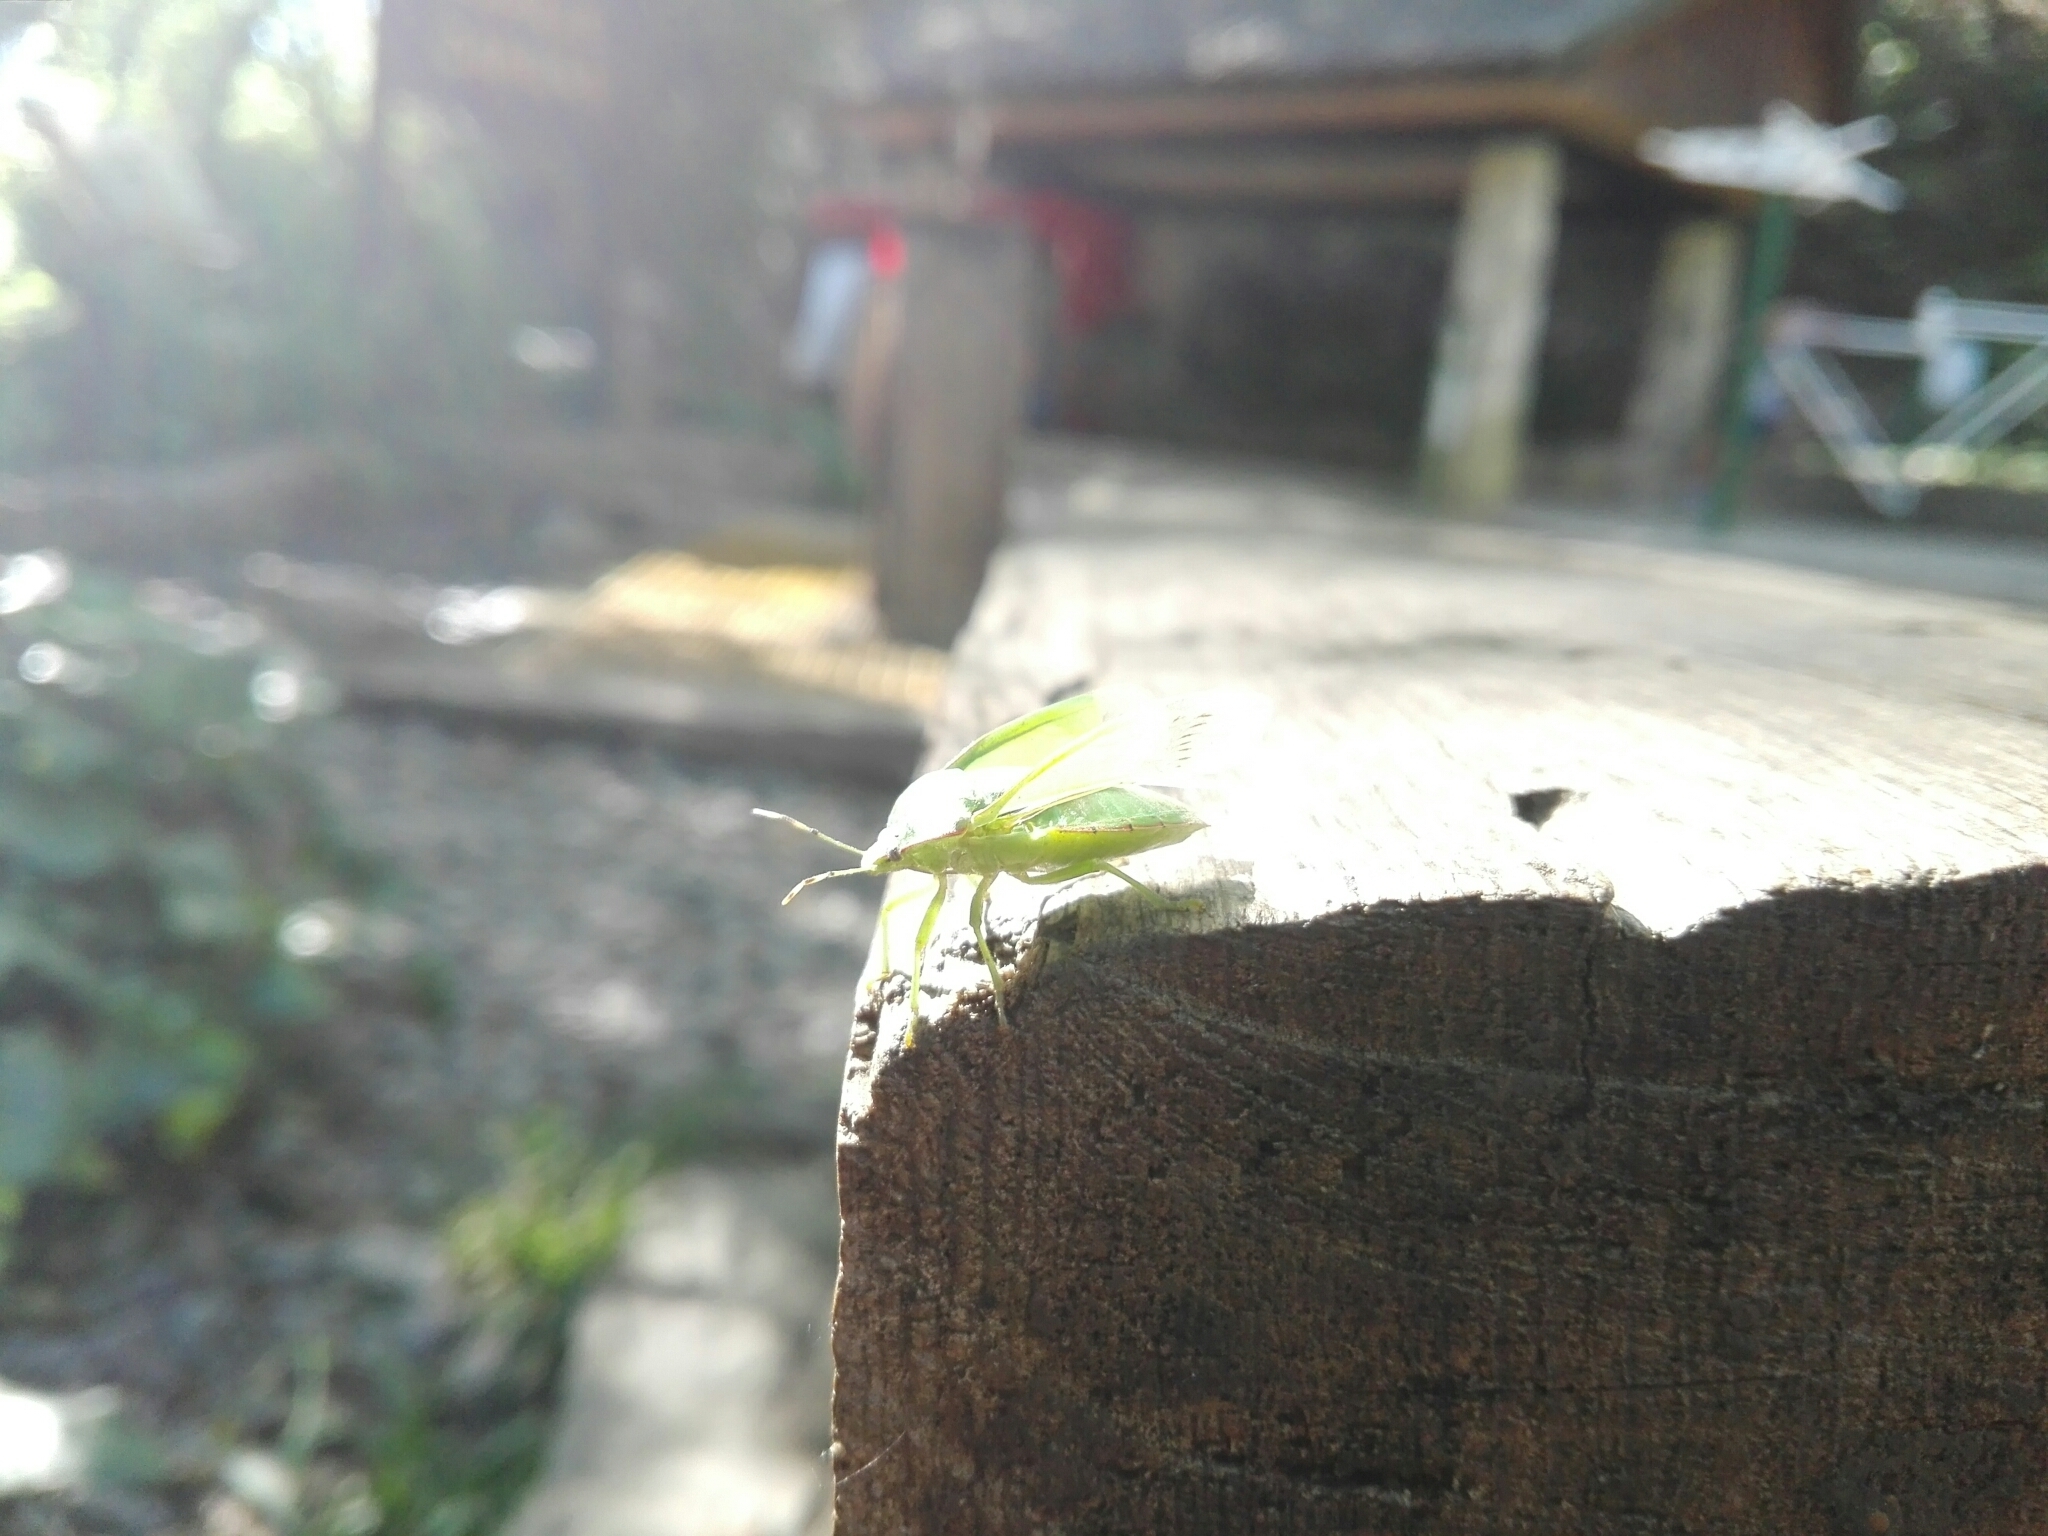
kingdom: Animalia
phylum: Arthropoda
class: Insecta
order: Hemiptera
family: Pentatomidae
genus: Chinavia
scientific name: Chinavia hilaris
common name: Green stink bug
